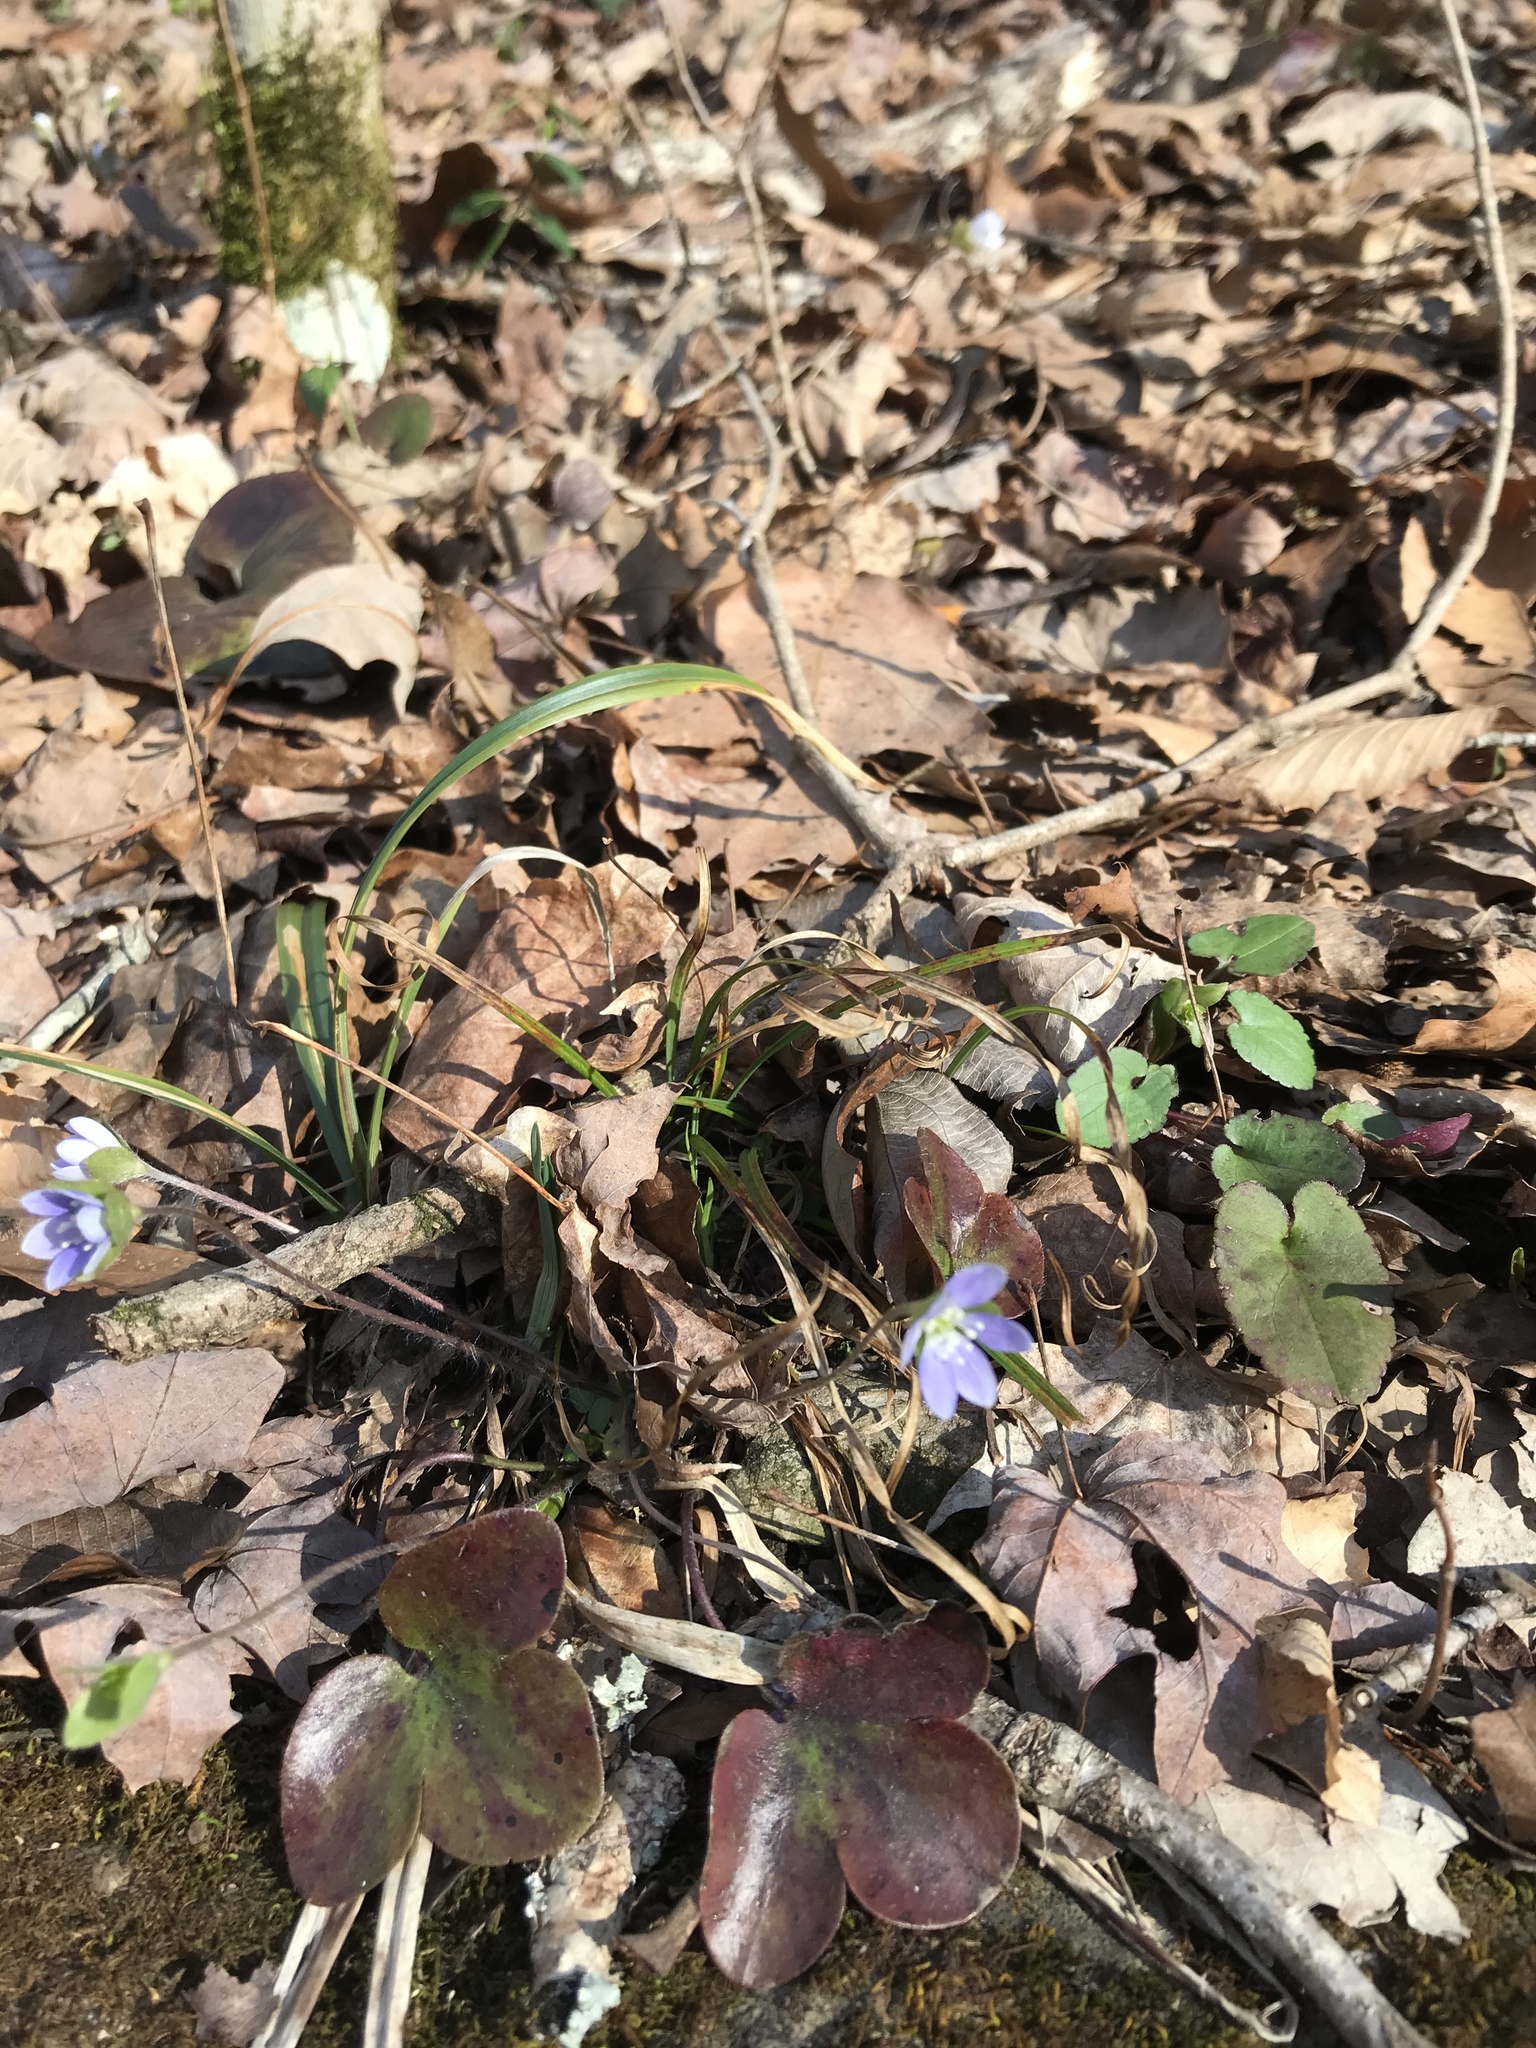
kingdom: Plantae
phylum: Tracheophyta
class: Magnoliopsida
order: Ranunculales
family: Ranunculaceae
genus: Hepatica
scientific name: Hepatica americana
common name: American hepatica
